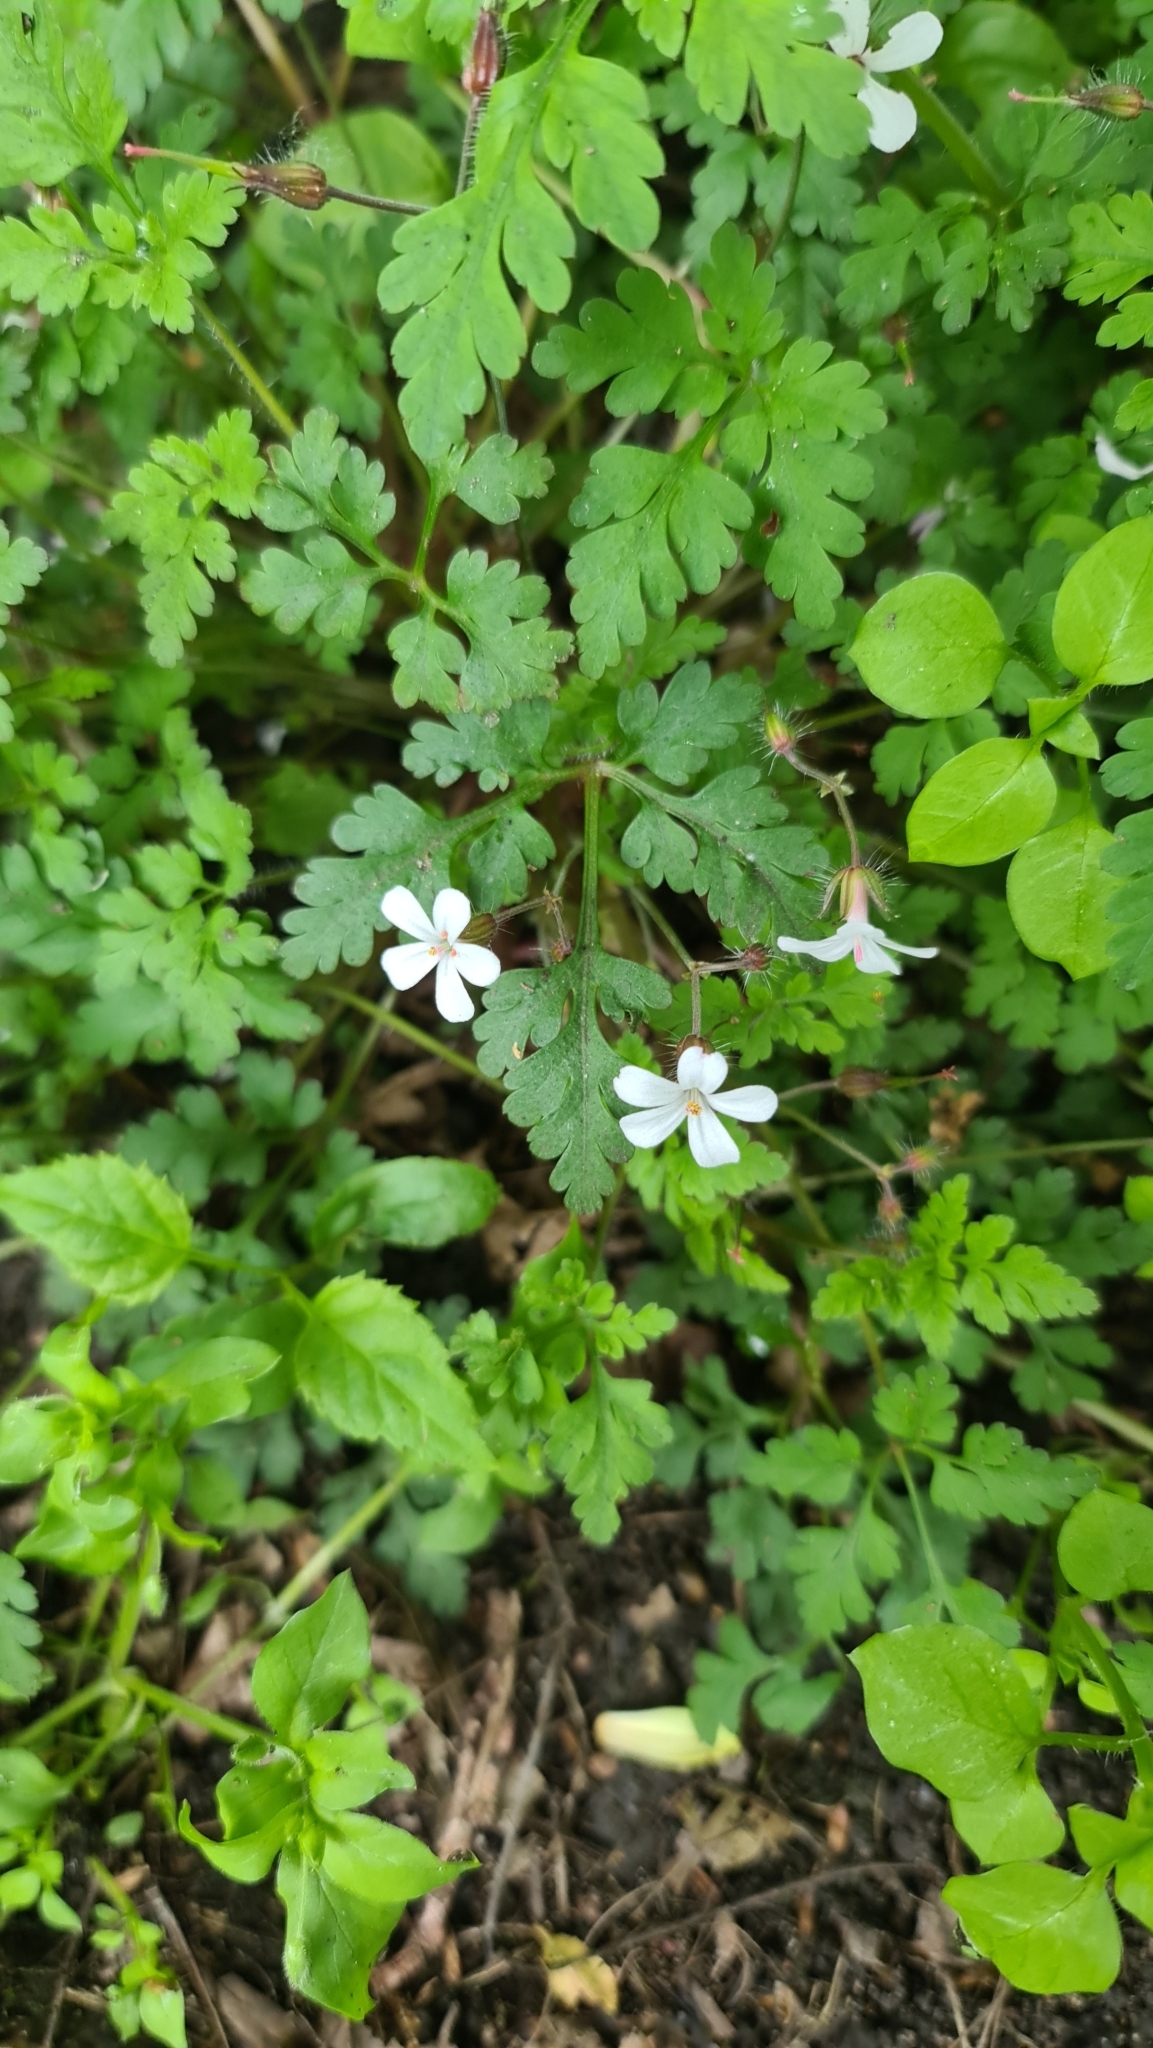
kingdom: Plantae
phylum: Tracheophyta
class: Magnoliopsida
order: Geraniales
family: Geraniaceae
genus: Geranium
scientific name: Geranium robertianum
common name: Herb-robert
